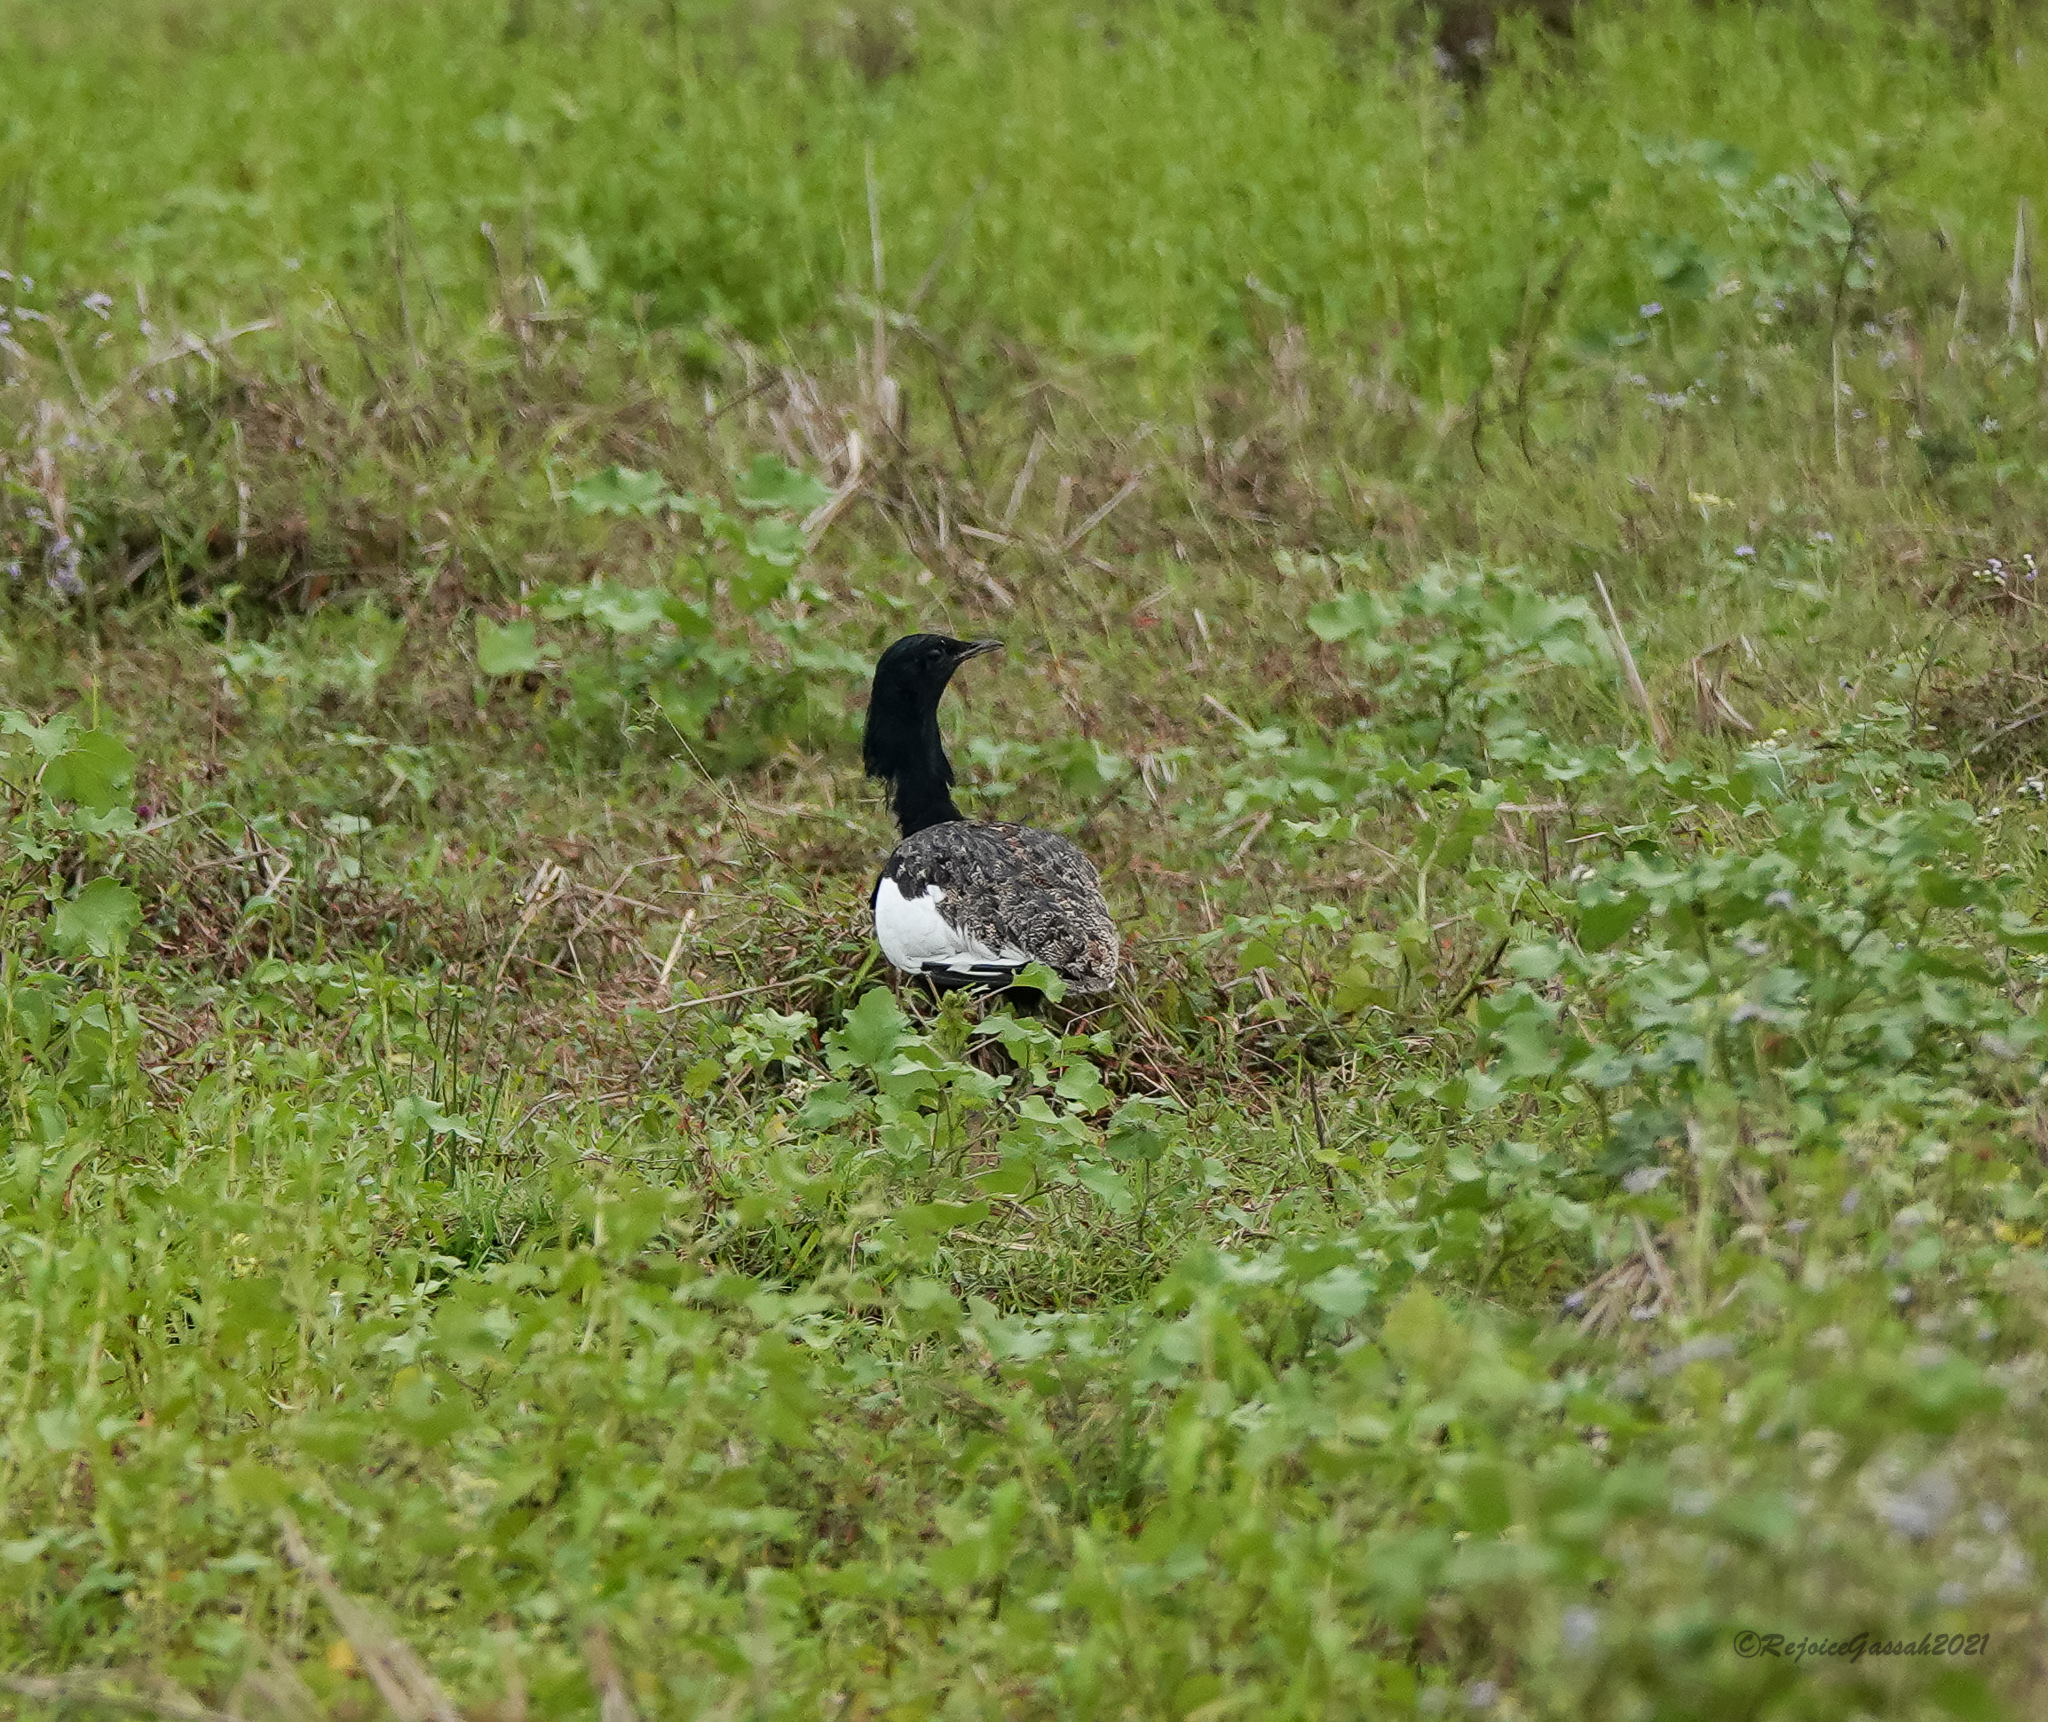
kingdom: Animalia
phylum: Chordata
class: Aves
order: Otidiformes
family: Otididae
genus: Houbaropsis
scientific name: Houbaropsis bengalensis
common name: Bengal florican
